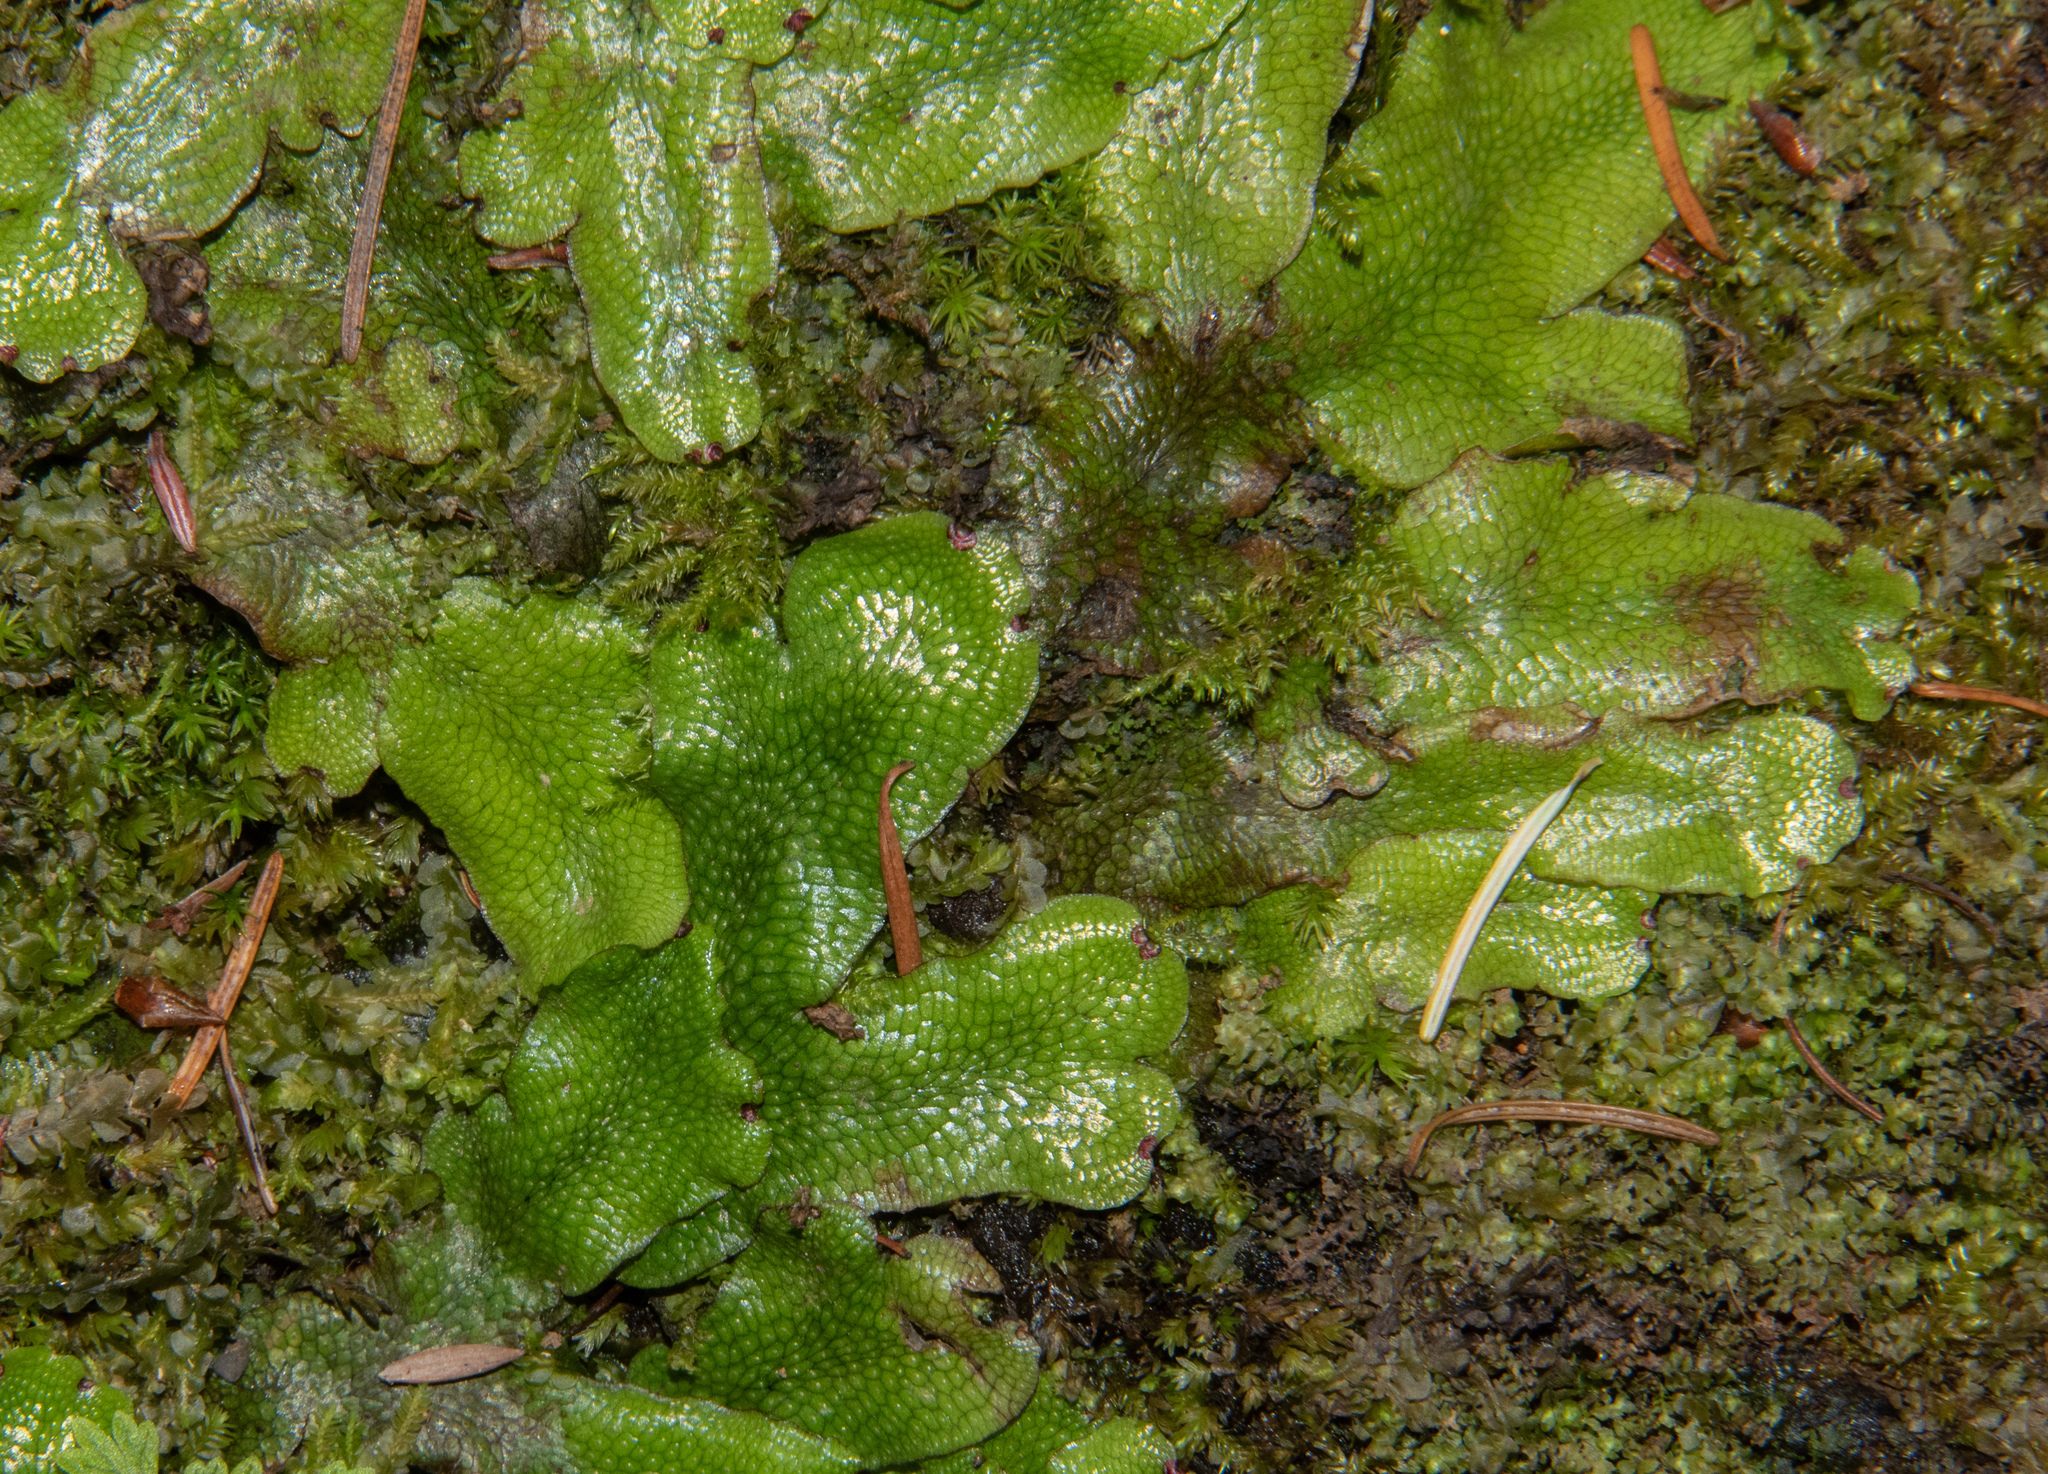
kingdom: Plantae
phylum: Marchantiophyta
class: Marchantiopsida
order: Marchantiales
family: Conocephalaceae
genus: Conocephalum
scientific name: Conocephalum salebrosum
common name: Cat-tongue liverwort
